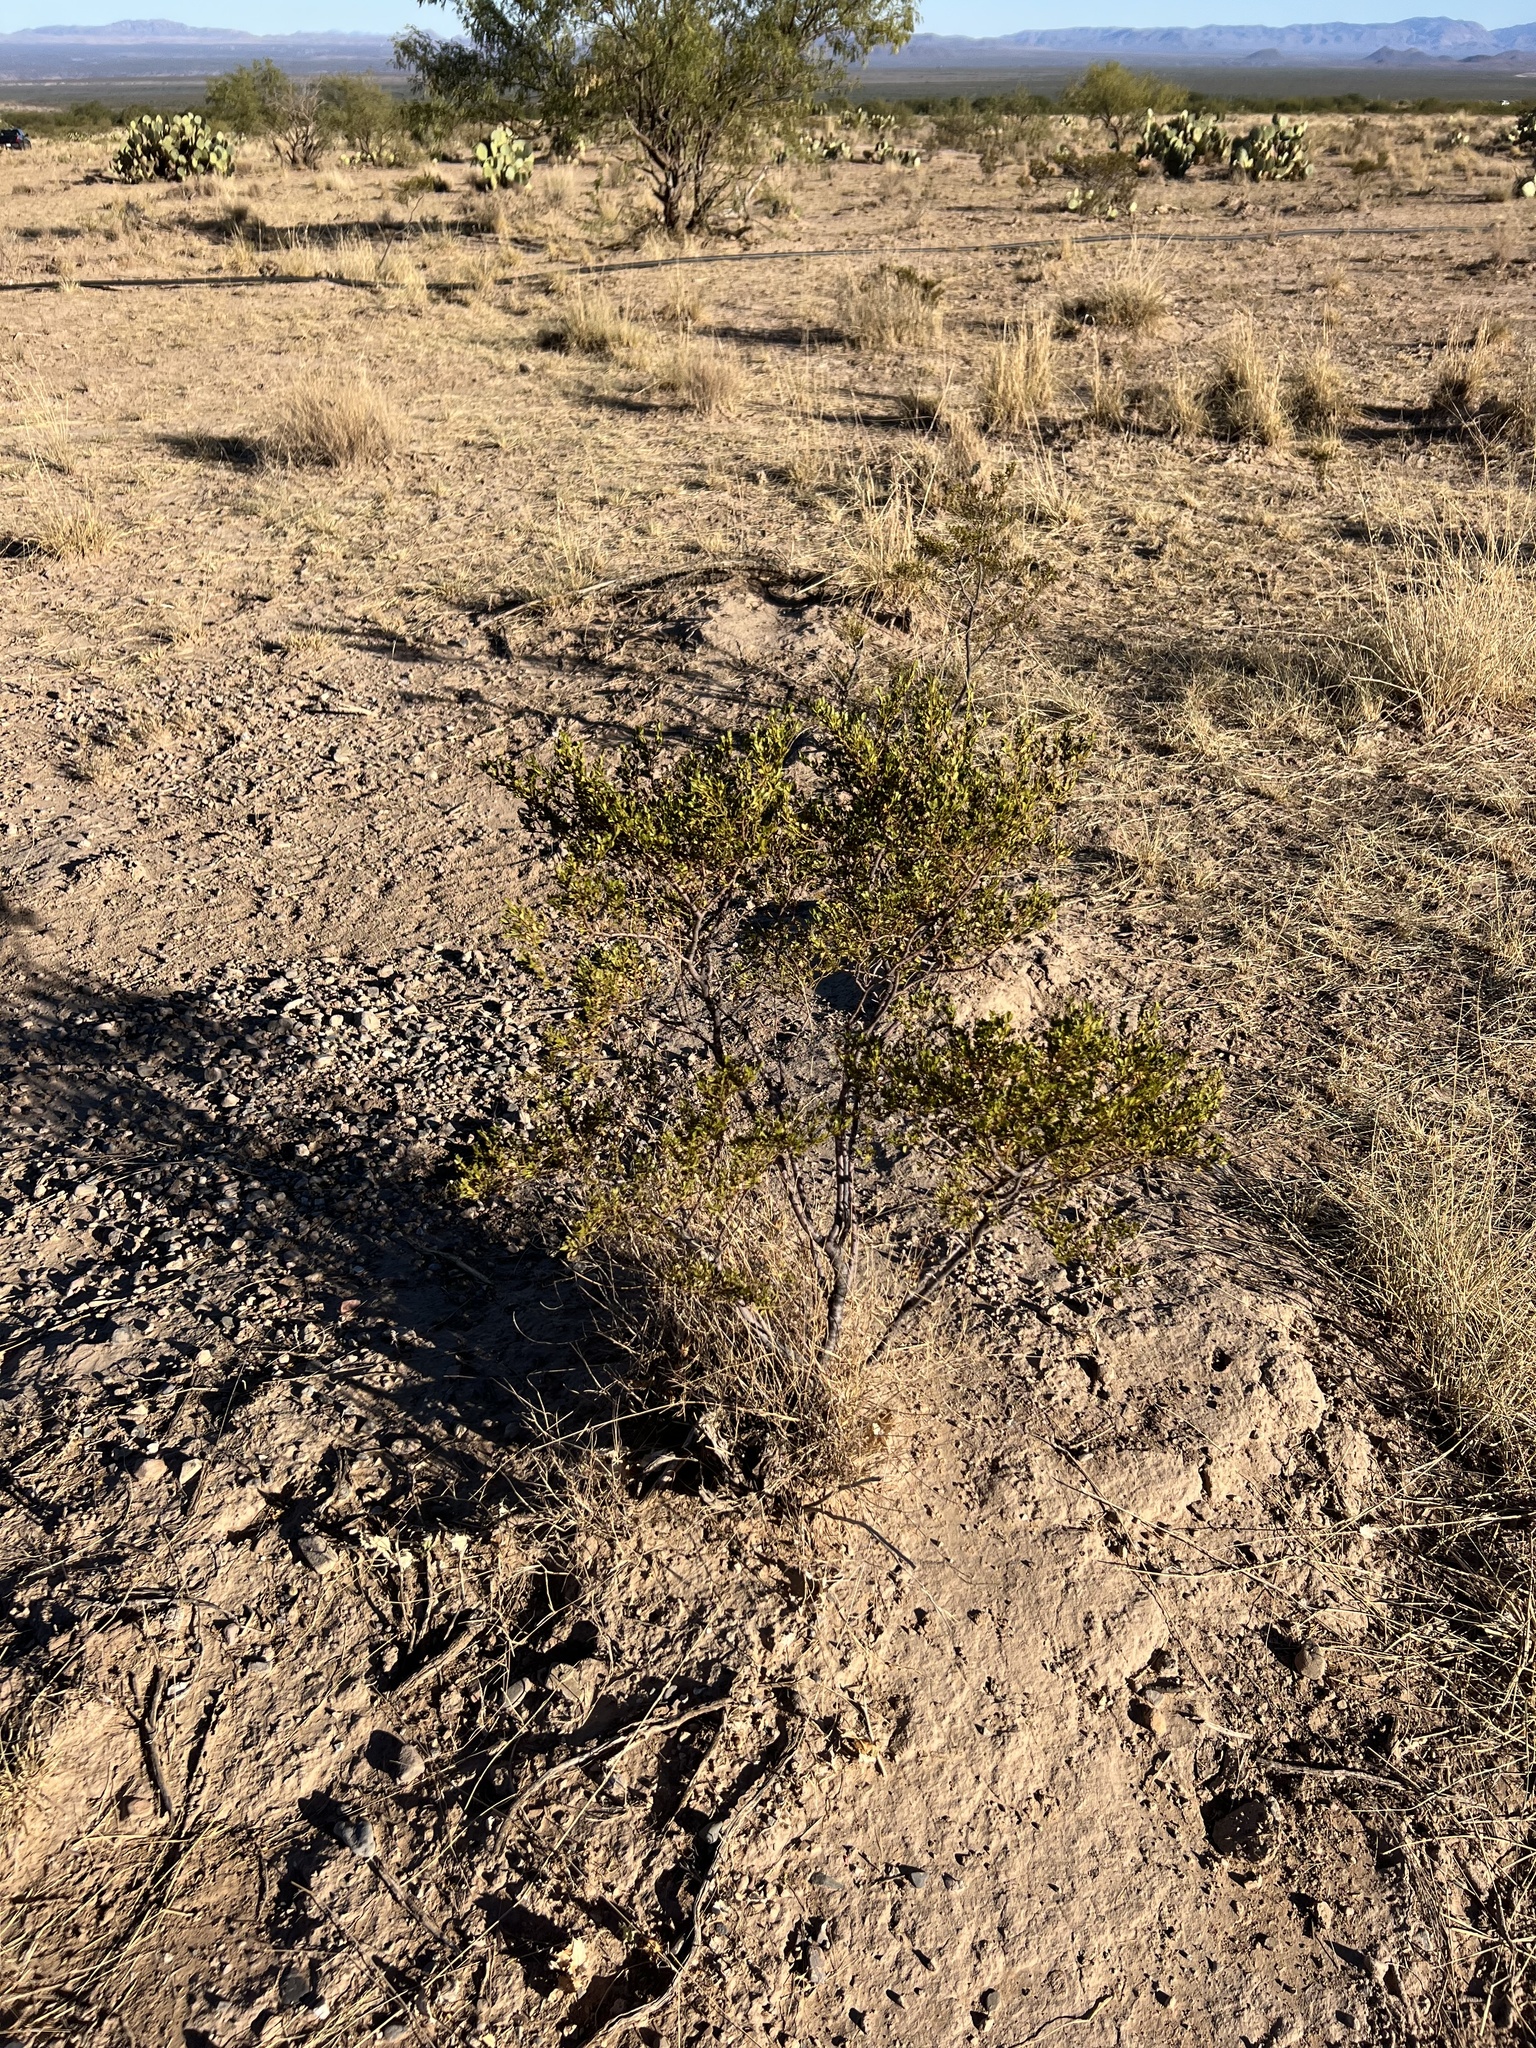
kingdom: Plantae
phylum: Tracheophyta
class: Magnoliopsida
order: Zygophyllales
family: Zygophyllaceae
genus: Larrea
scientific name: Larrea tridentata
